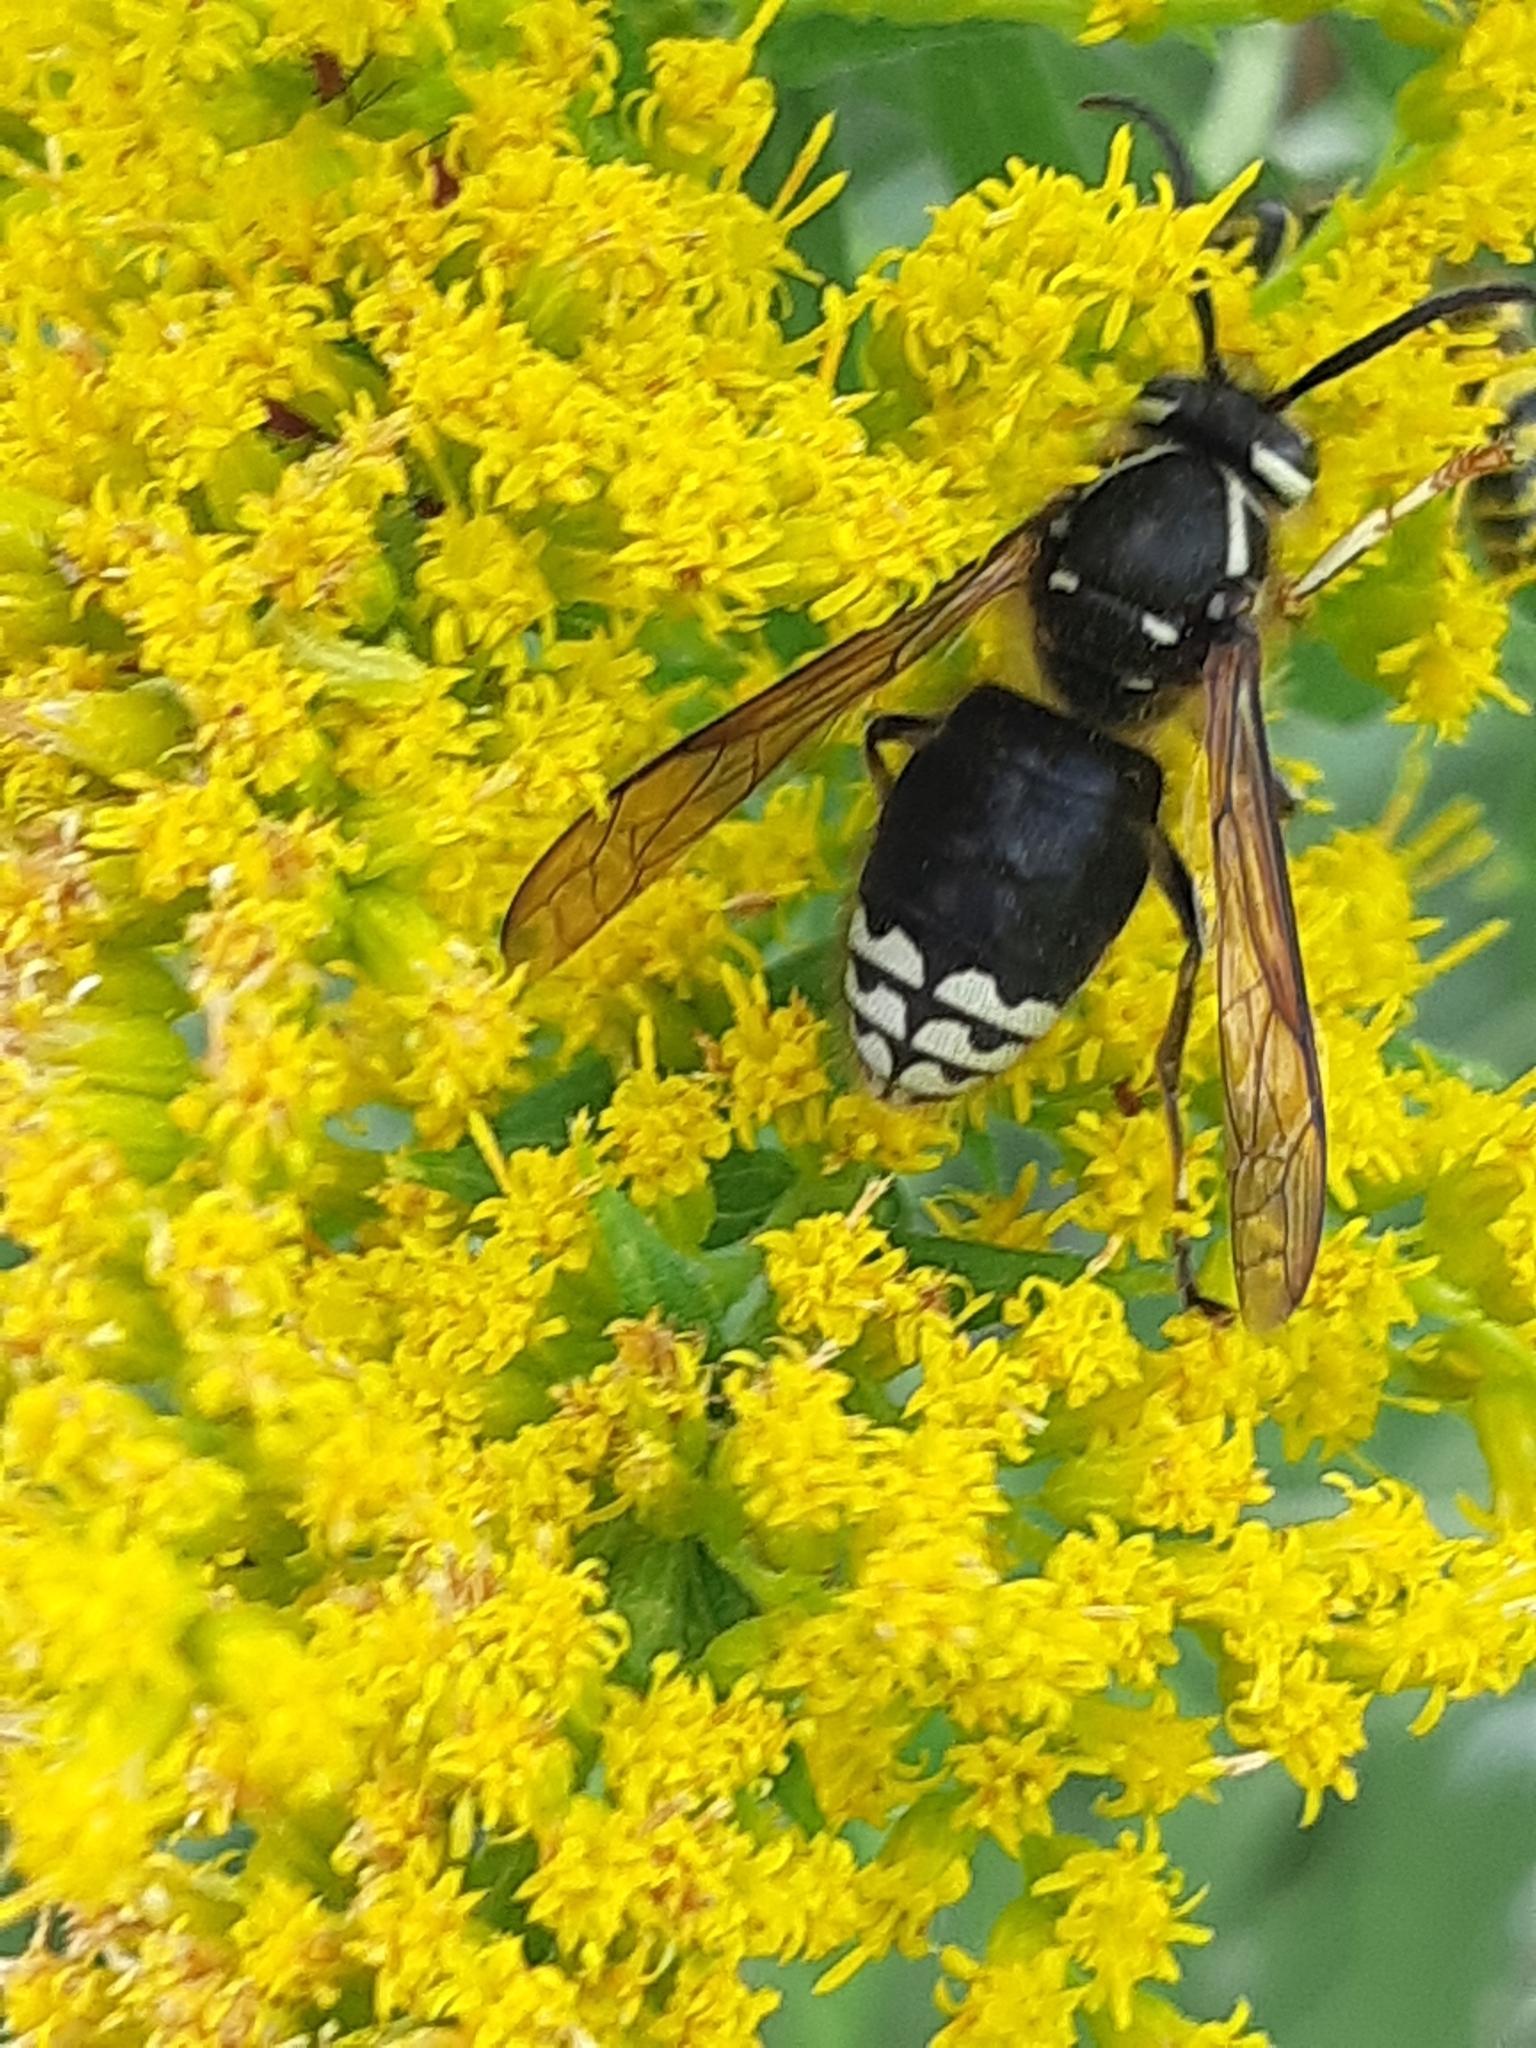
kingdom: Animalia
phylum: Arthropoda
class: Insecta
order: Hymenoptera
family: Vespidae
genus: Dolichovespula
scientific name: Dolichovespula maculata
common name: Bald-faced hornet
